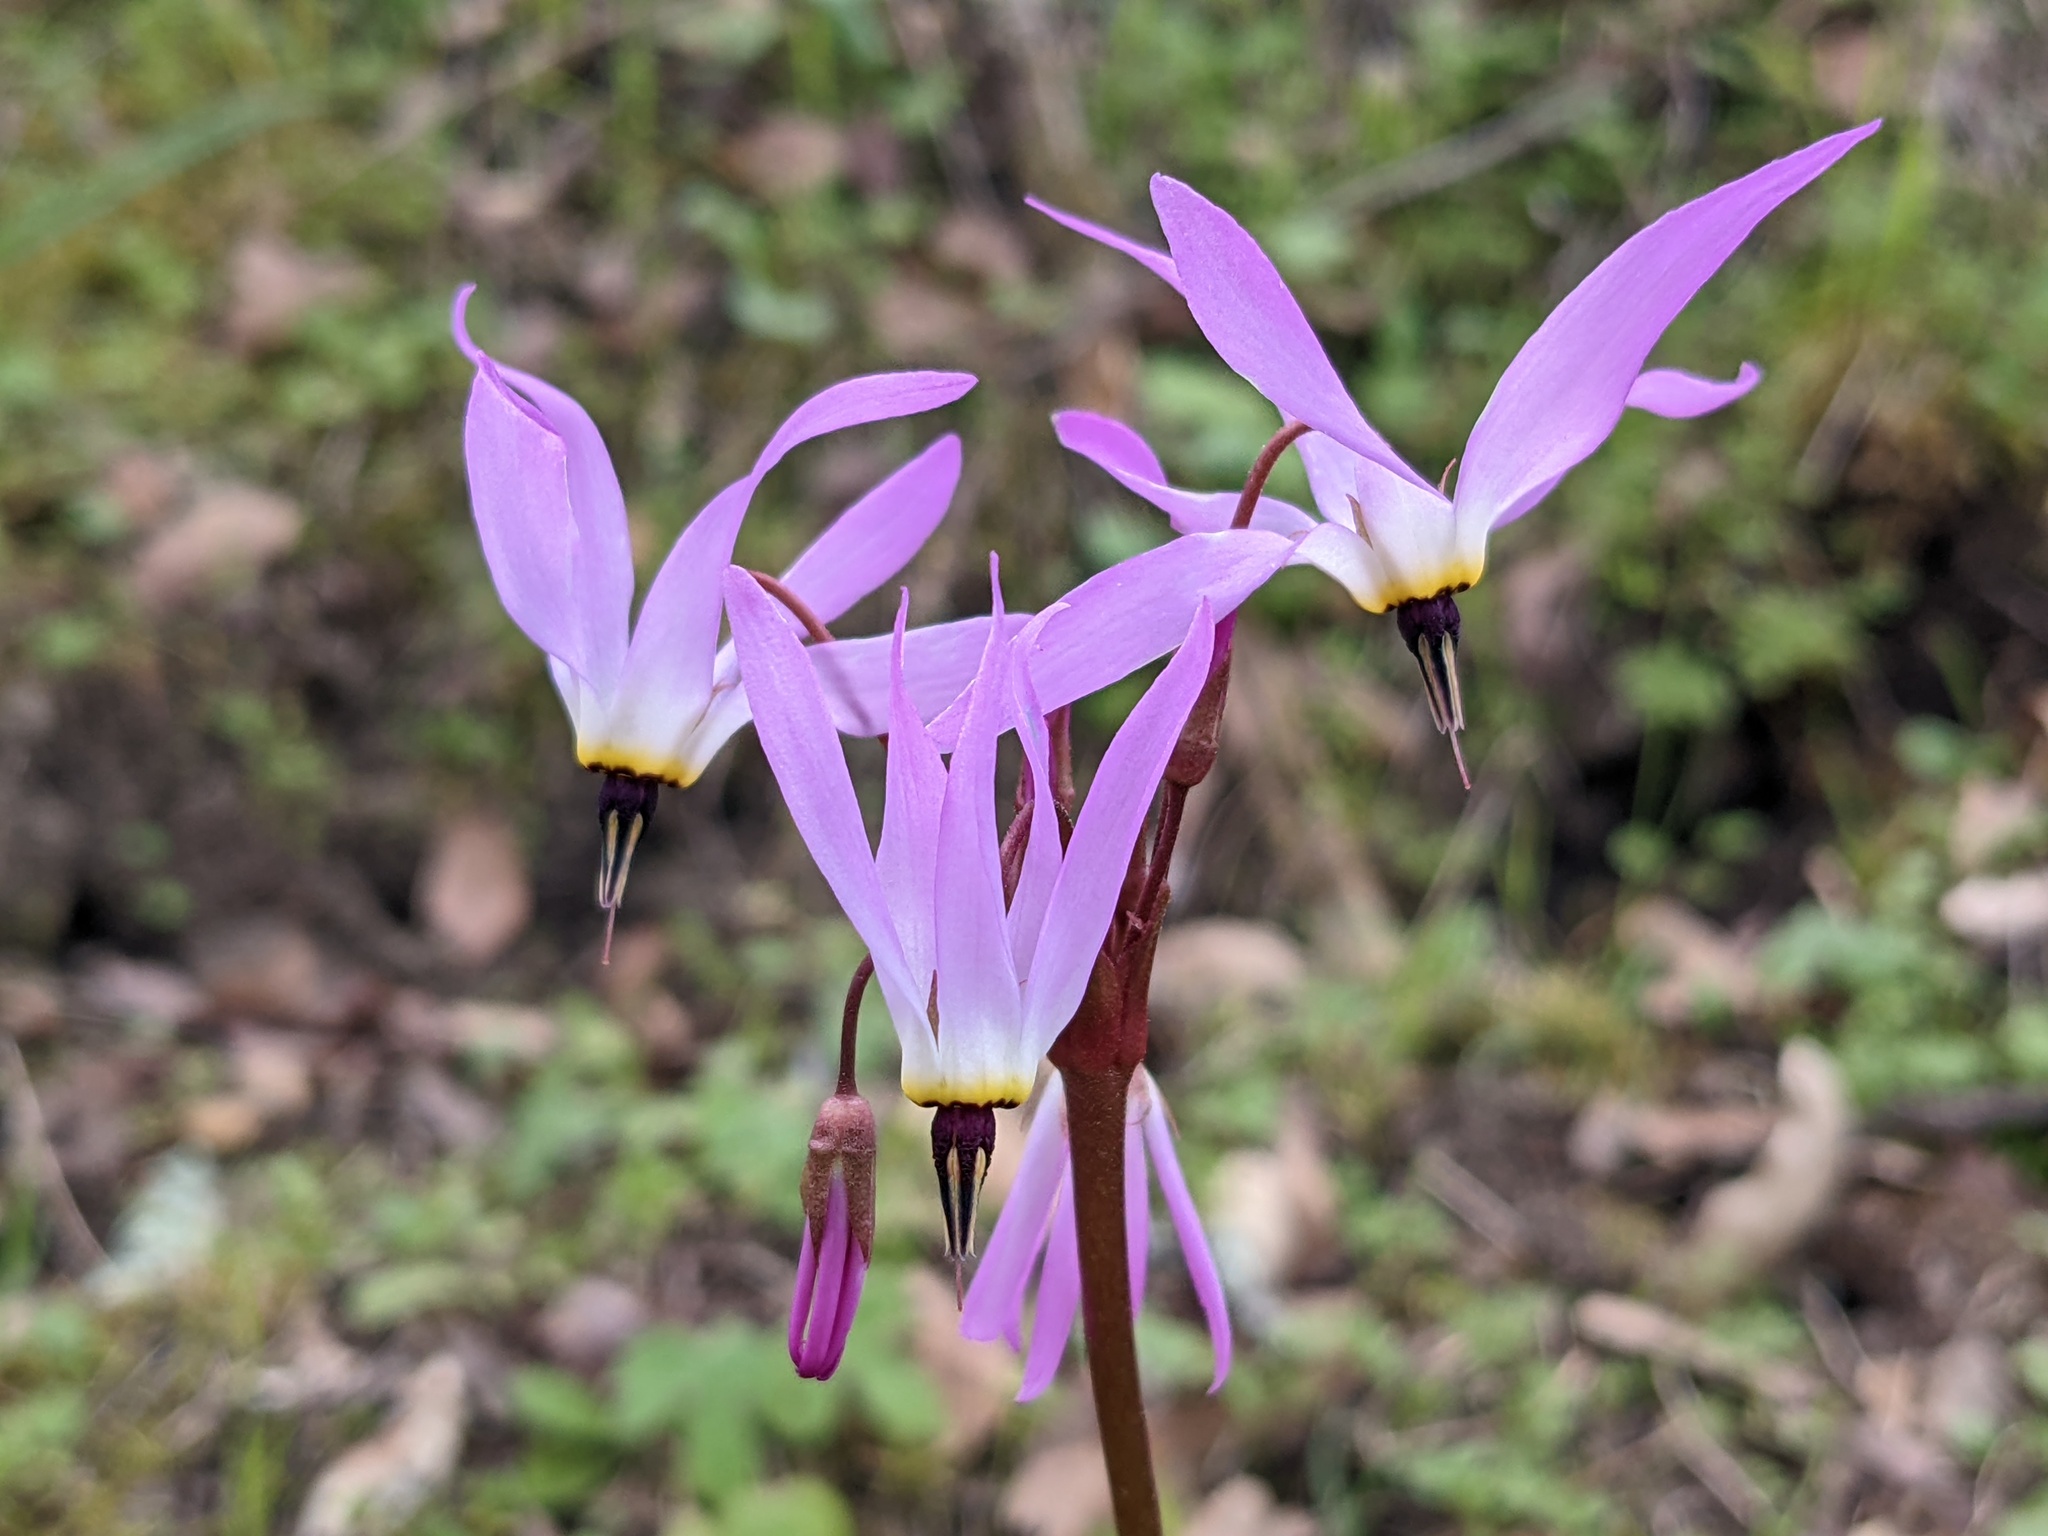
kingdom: Plantae
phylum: Tracheophyta
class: Magnoliopsida
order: Ericales
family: Primulaceae
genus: Dodecatheon
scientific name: Dodecatheon hendersonii
